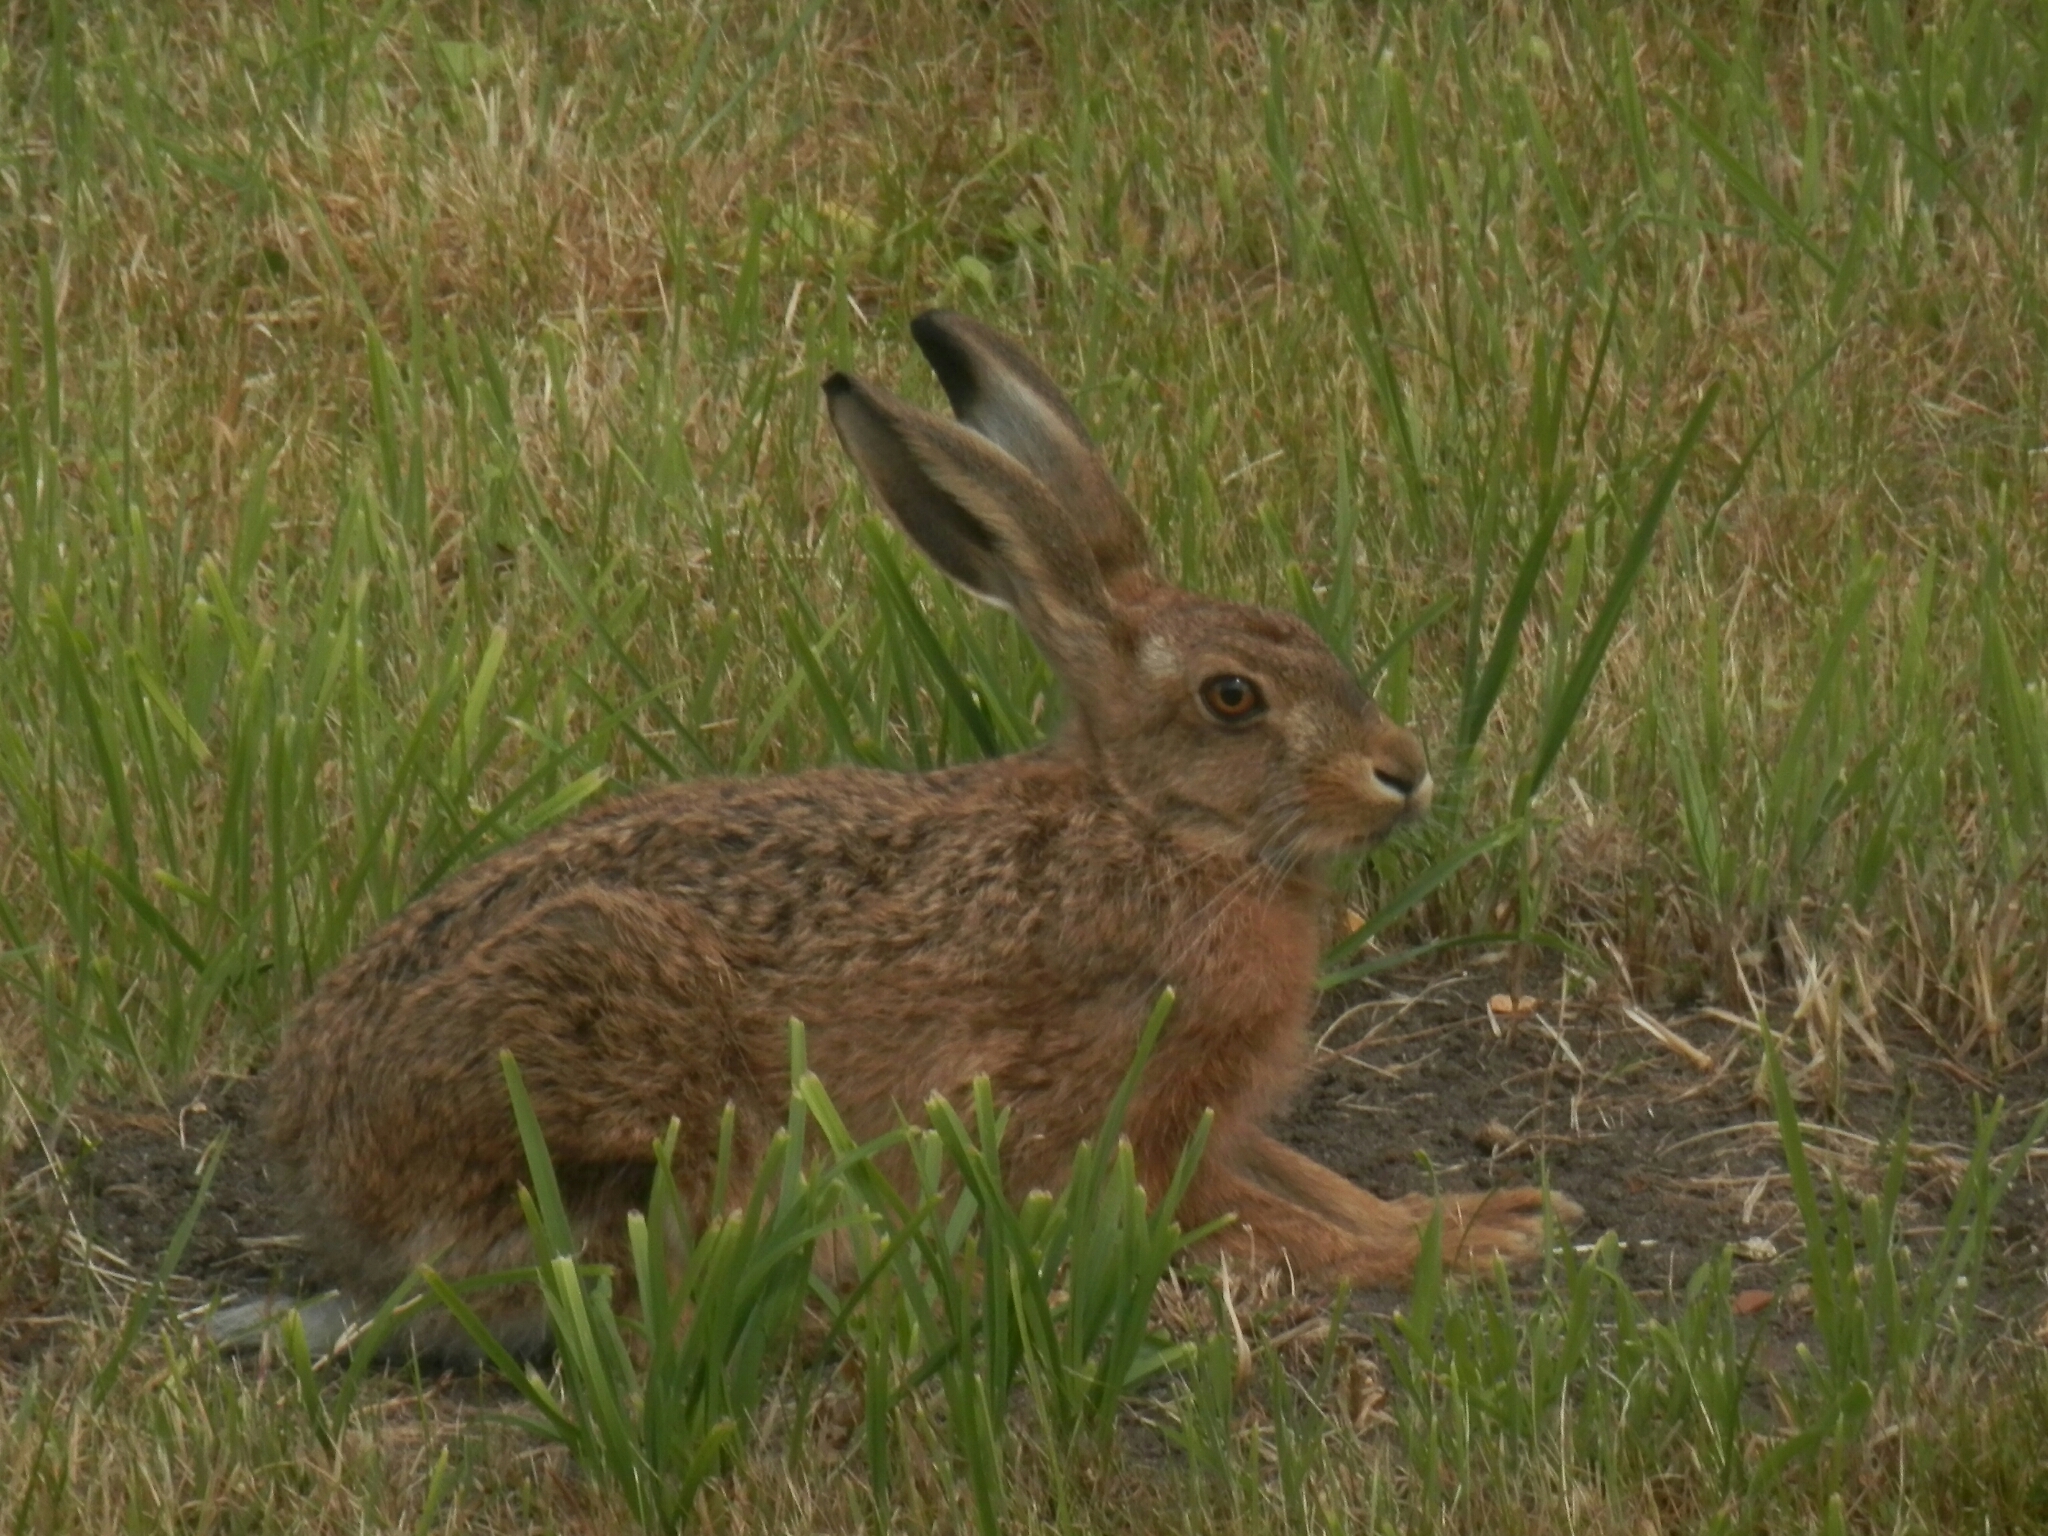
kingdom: Animalia
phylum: Chordata
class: Mammalia
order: Lagomorpha
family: Leporidae
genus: Lepus
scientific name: Lepus europaeus
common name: European hare
